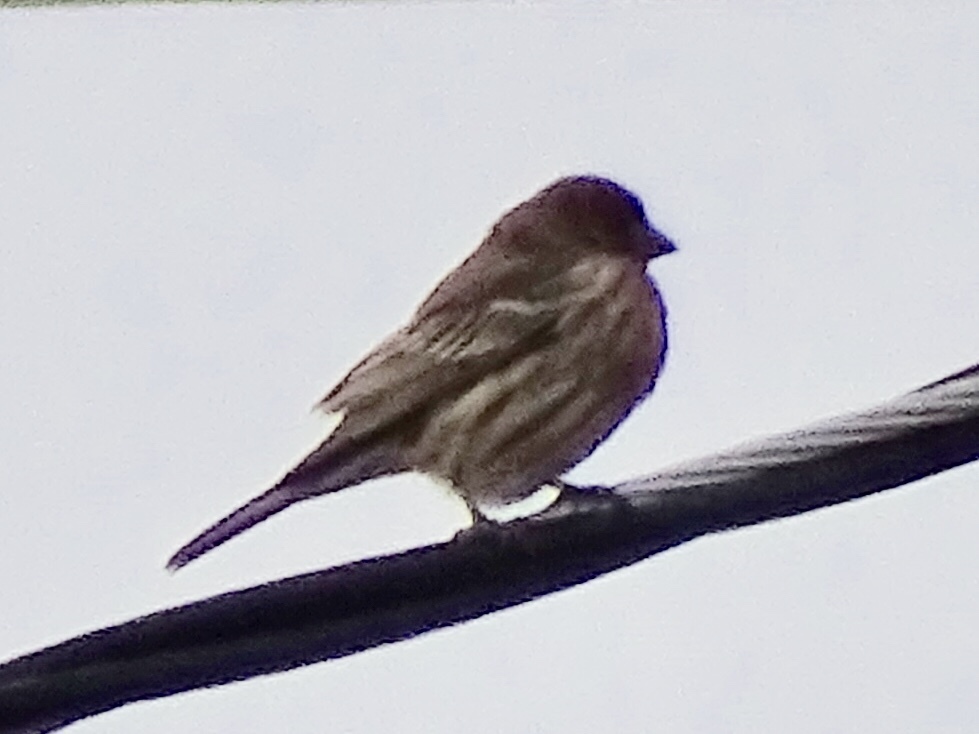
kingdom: Animalia
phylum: Chordata
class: Aves
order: Passeriformes
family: Fringillidae
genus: Haemorhous
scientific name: Haemorhous mexicanus
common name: House finch
